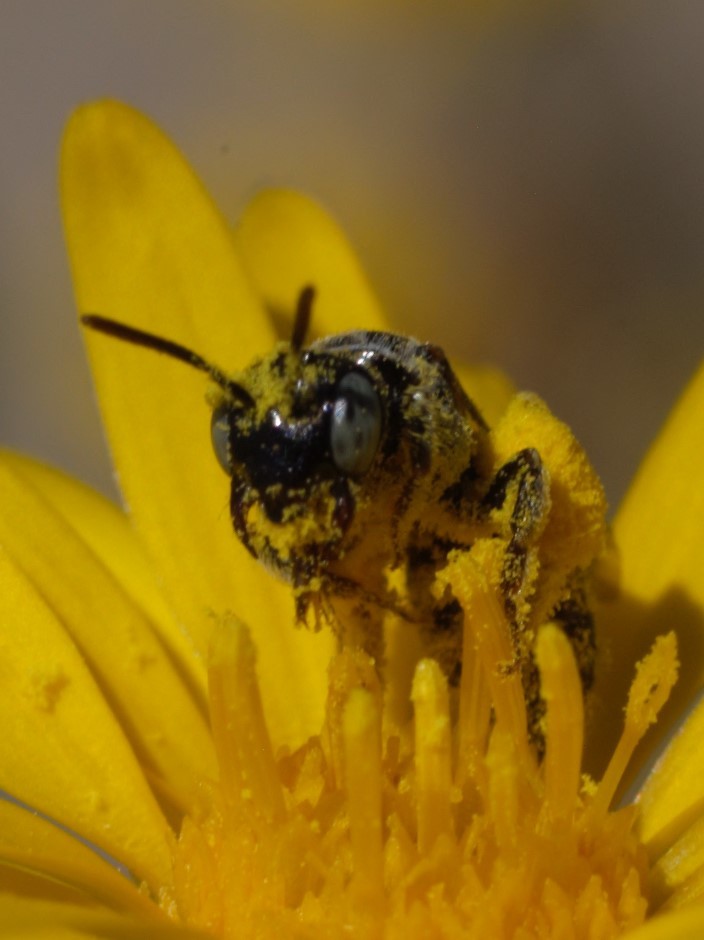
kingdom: Animalia
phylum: Arthropoda
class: Insecta
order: Hymenoptera
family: Andrenidae
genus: Pterosarus
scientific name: Pterosarus
